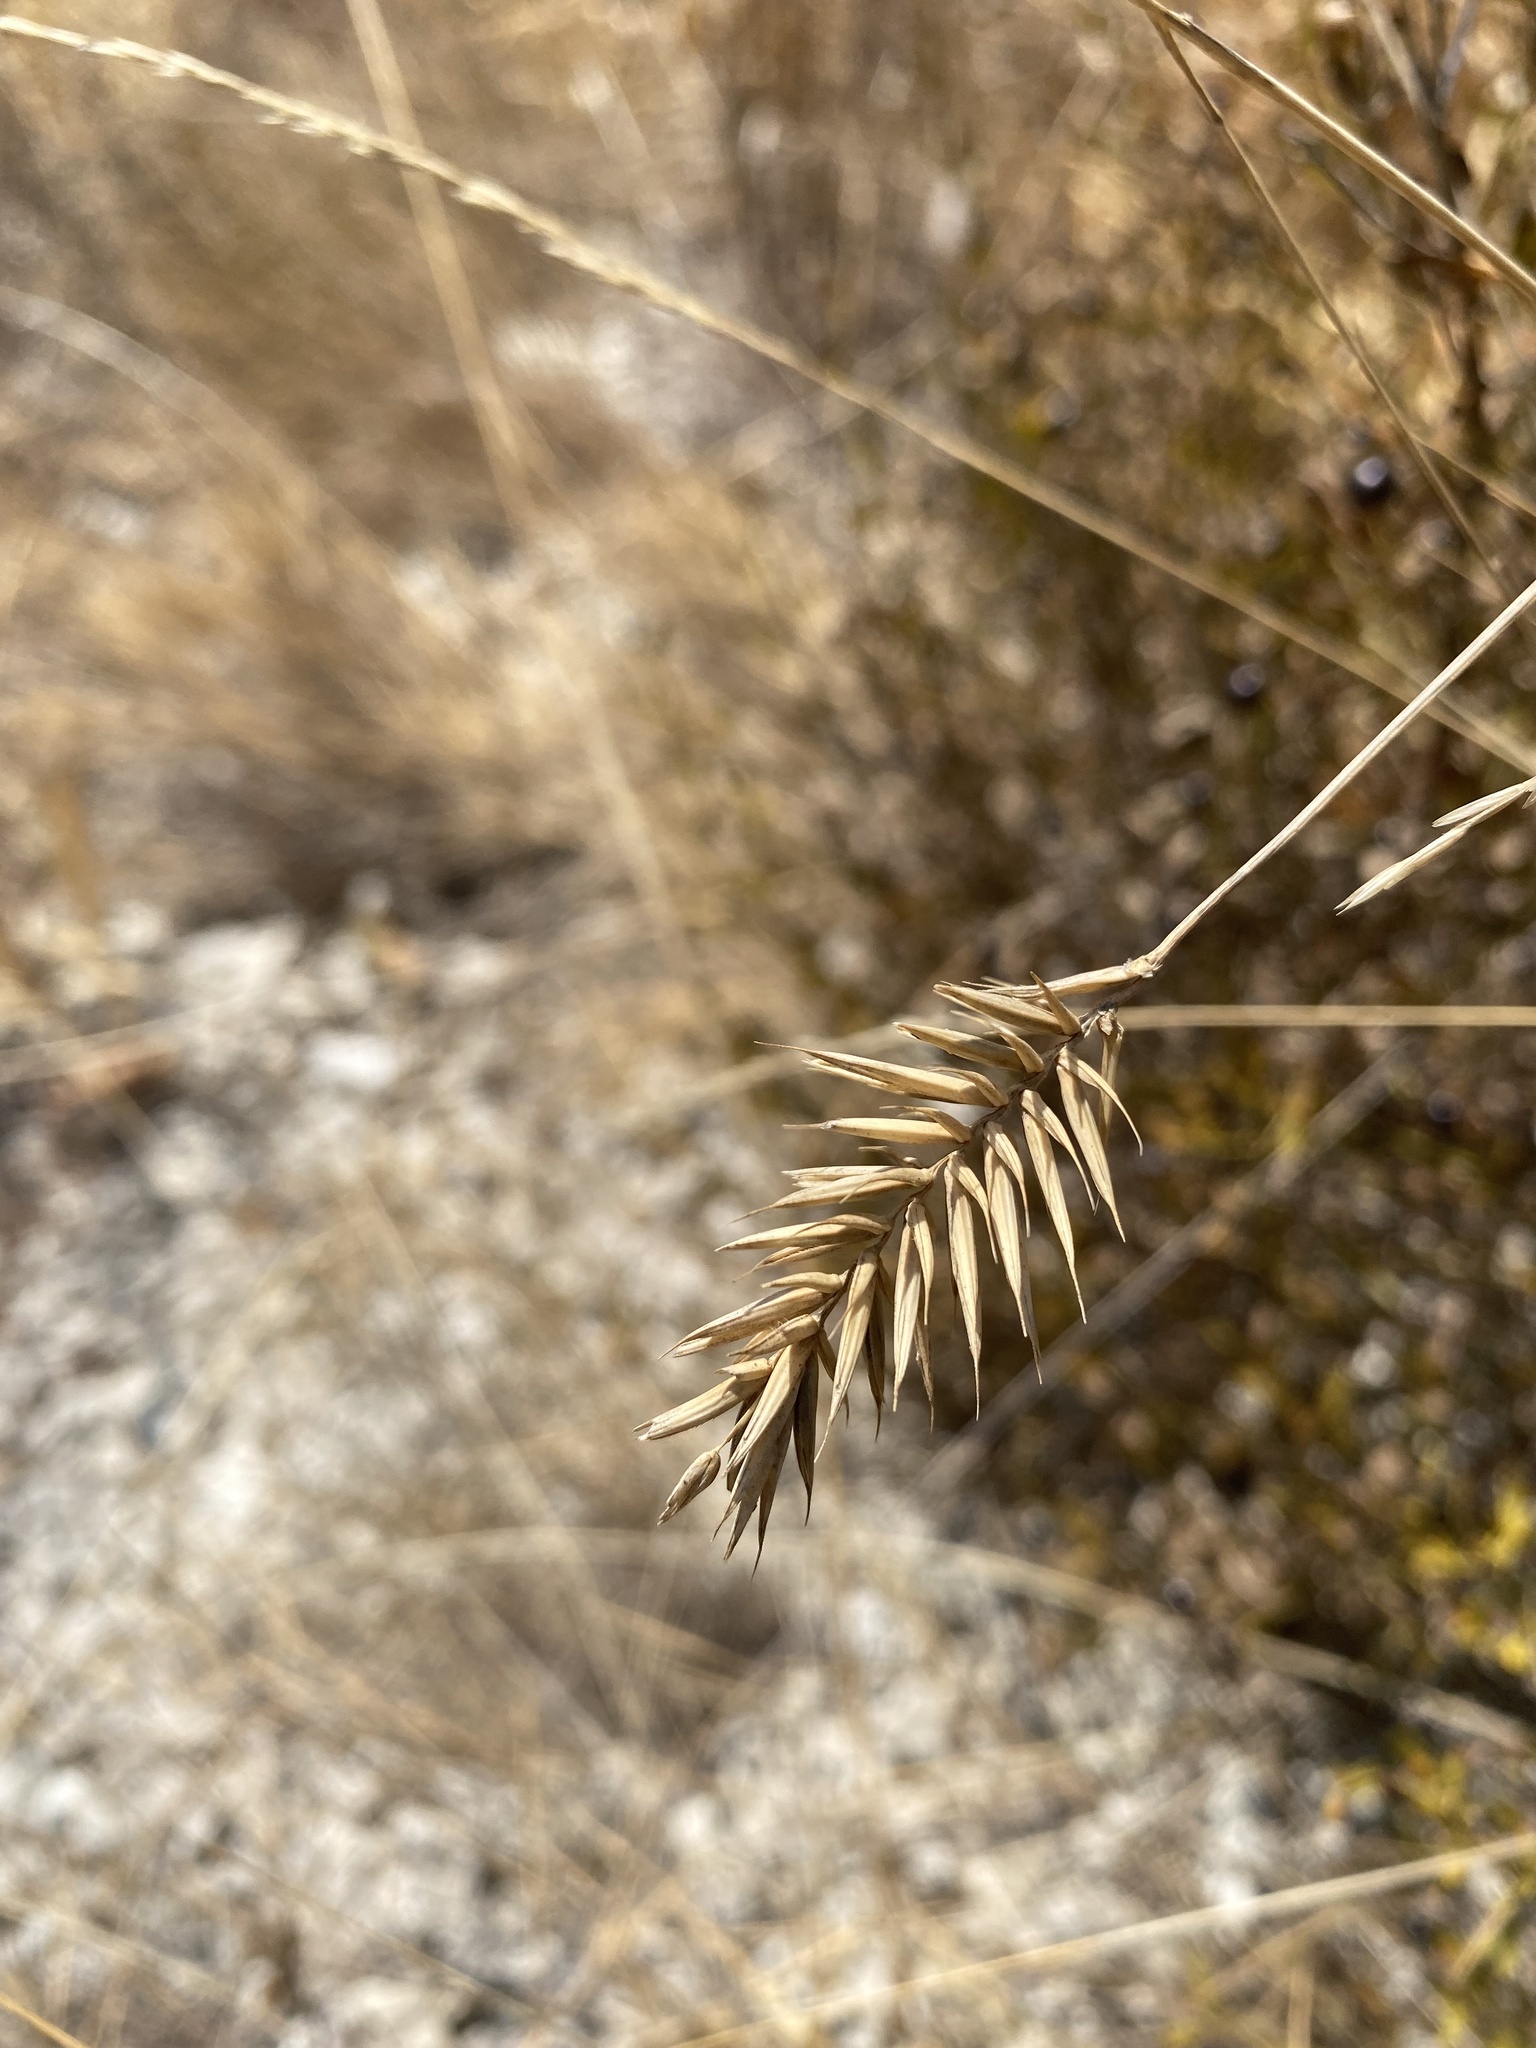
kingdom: Plantae
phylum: Tracheophyta
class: Liliopsida
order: Poales
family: Poaceae
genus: Agropyron
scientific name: Agropyron cristatum
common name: Crested wheatgrass
